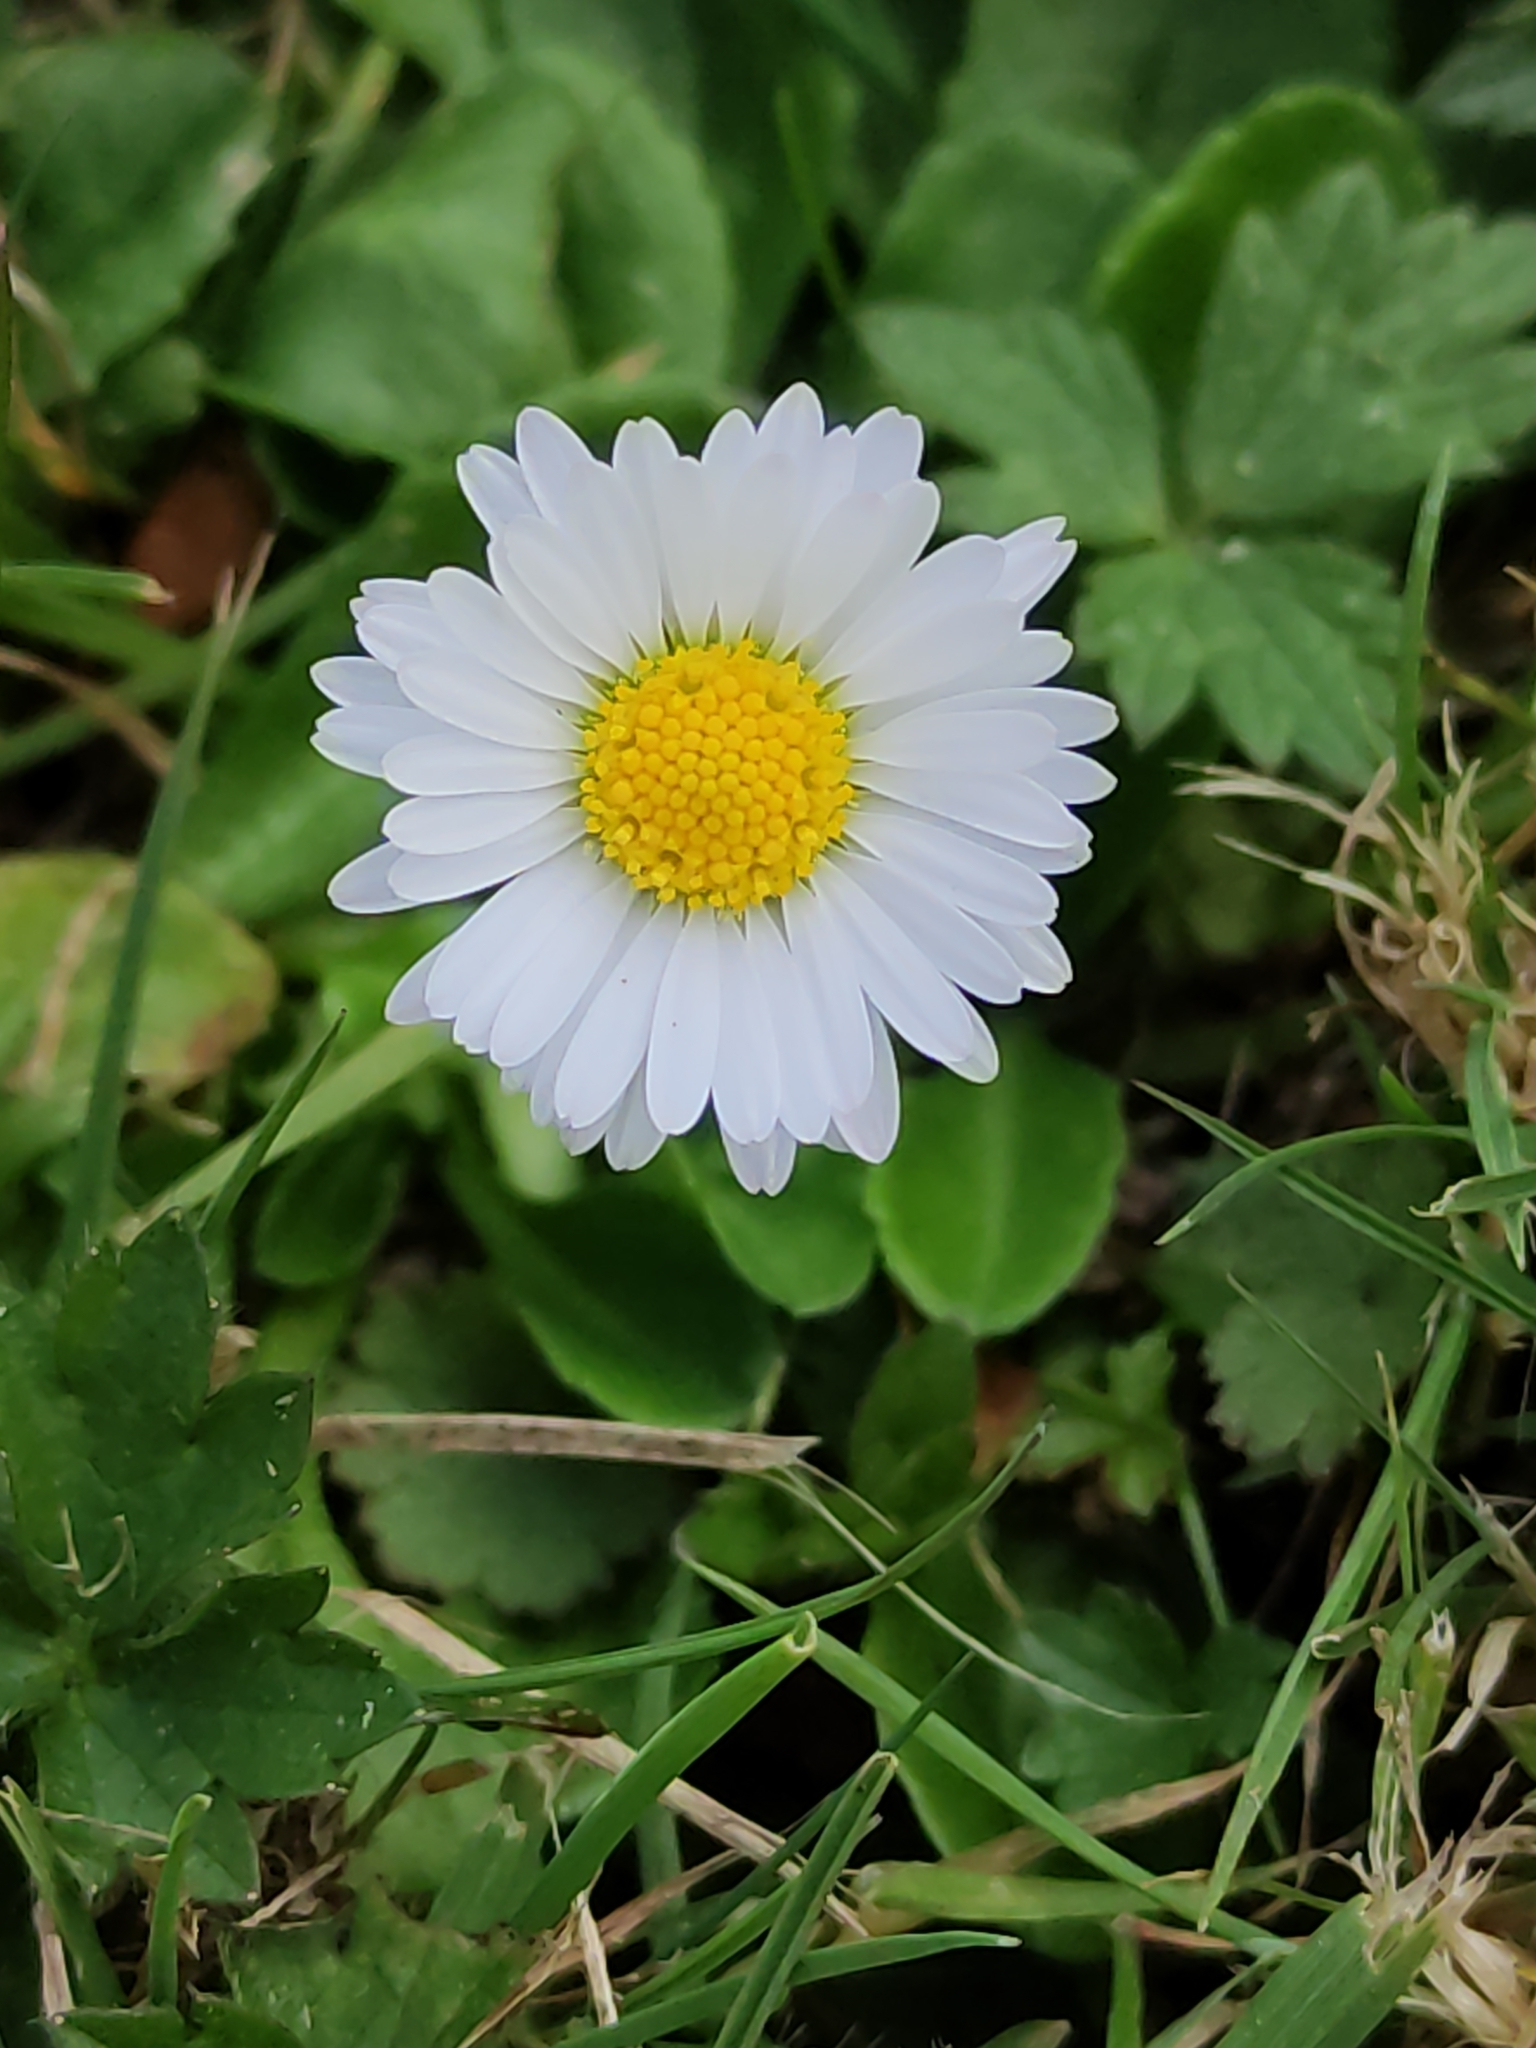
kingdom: Plantae
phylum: Tracheophyta
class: Magnoliopsida
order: Asterales
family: Asteraceae
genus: Bellis
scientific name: Bellis perennis
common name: Lawndaisy
